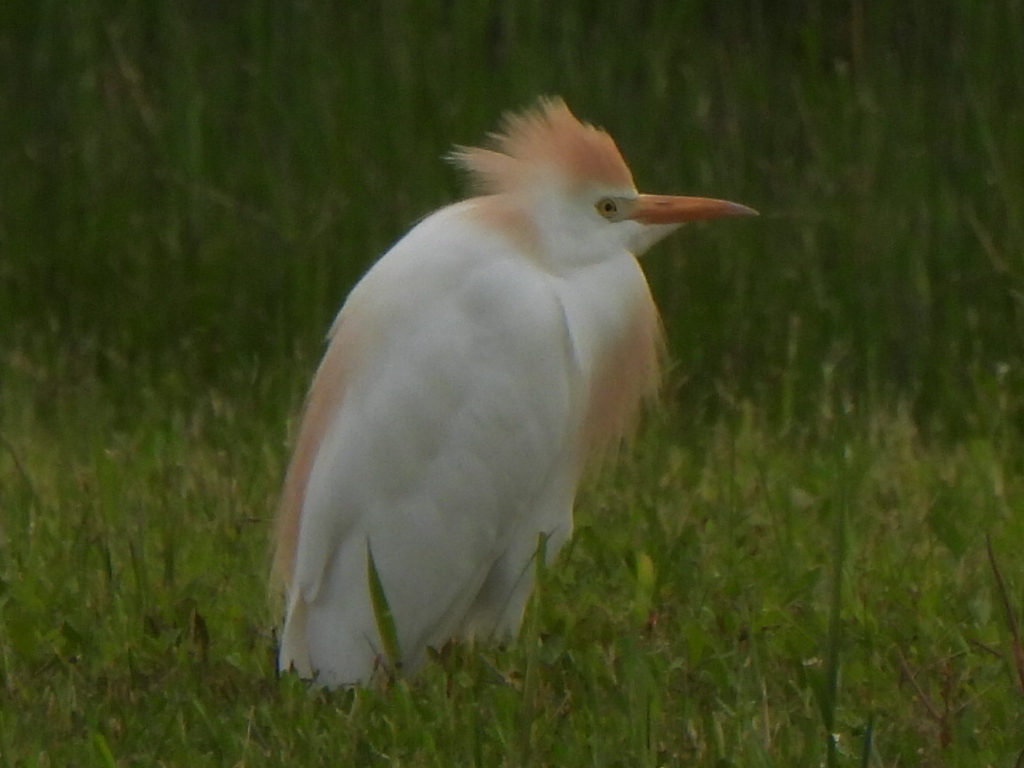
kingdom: Animalia
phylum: Chordata
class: Aves
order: Pelecaniformes
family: Ardeidae
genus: Bubulcus
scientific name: Bubulcus ibis
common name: Cattle egret
